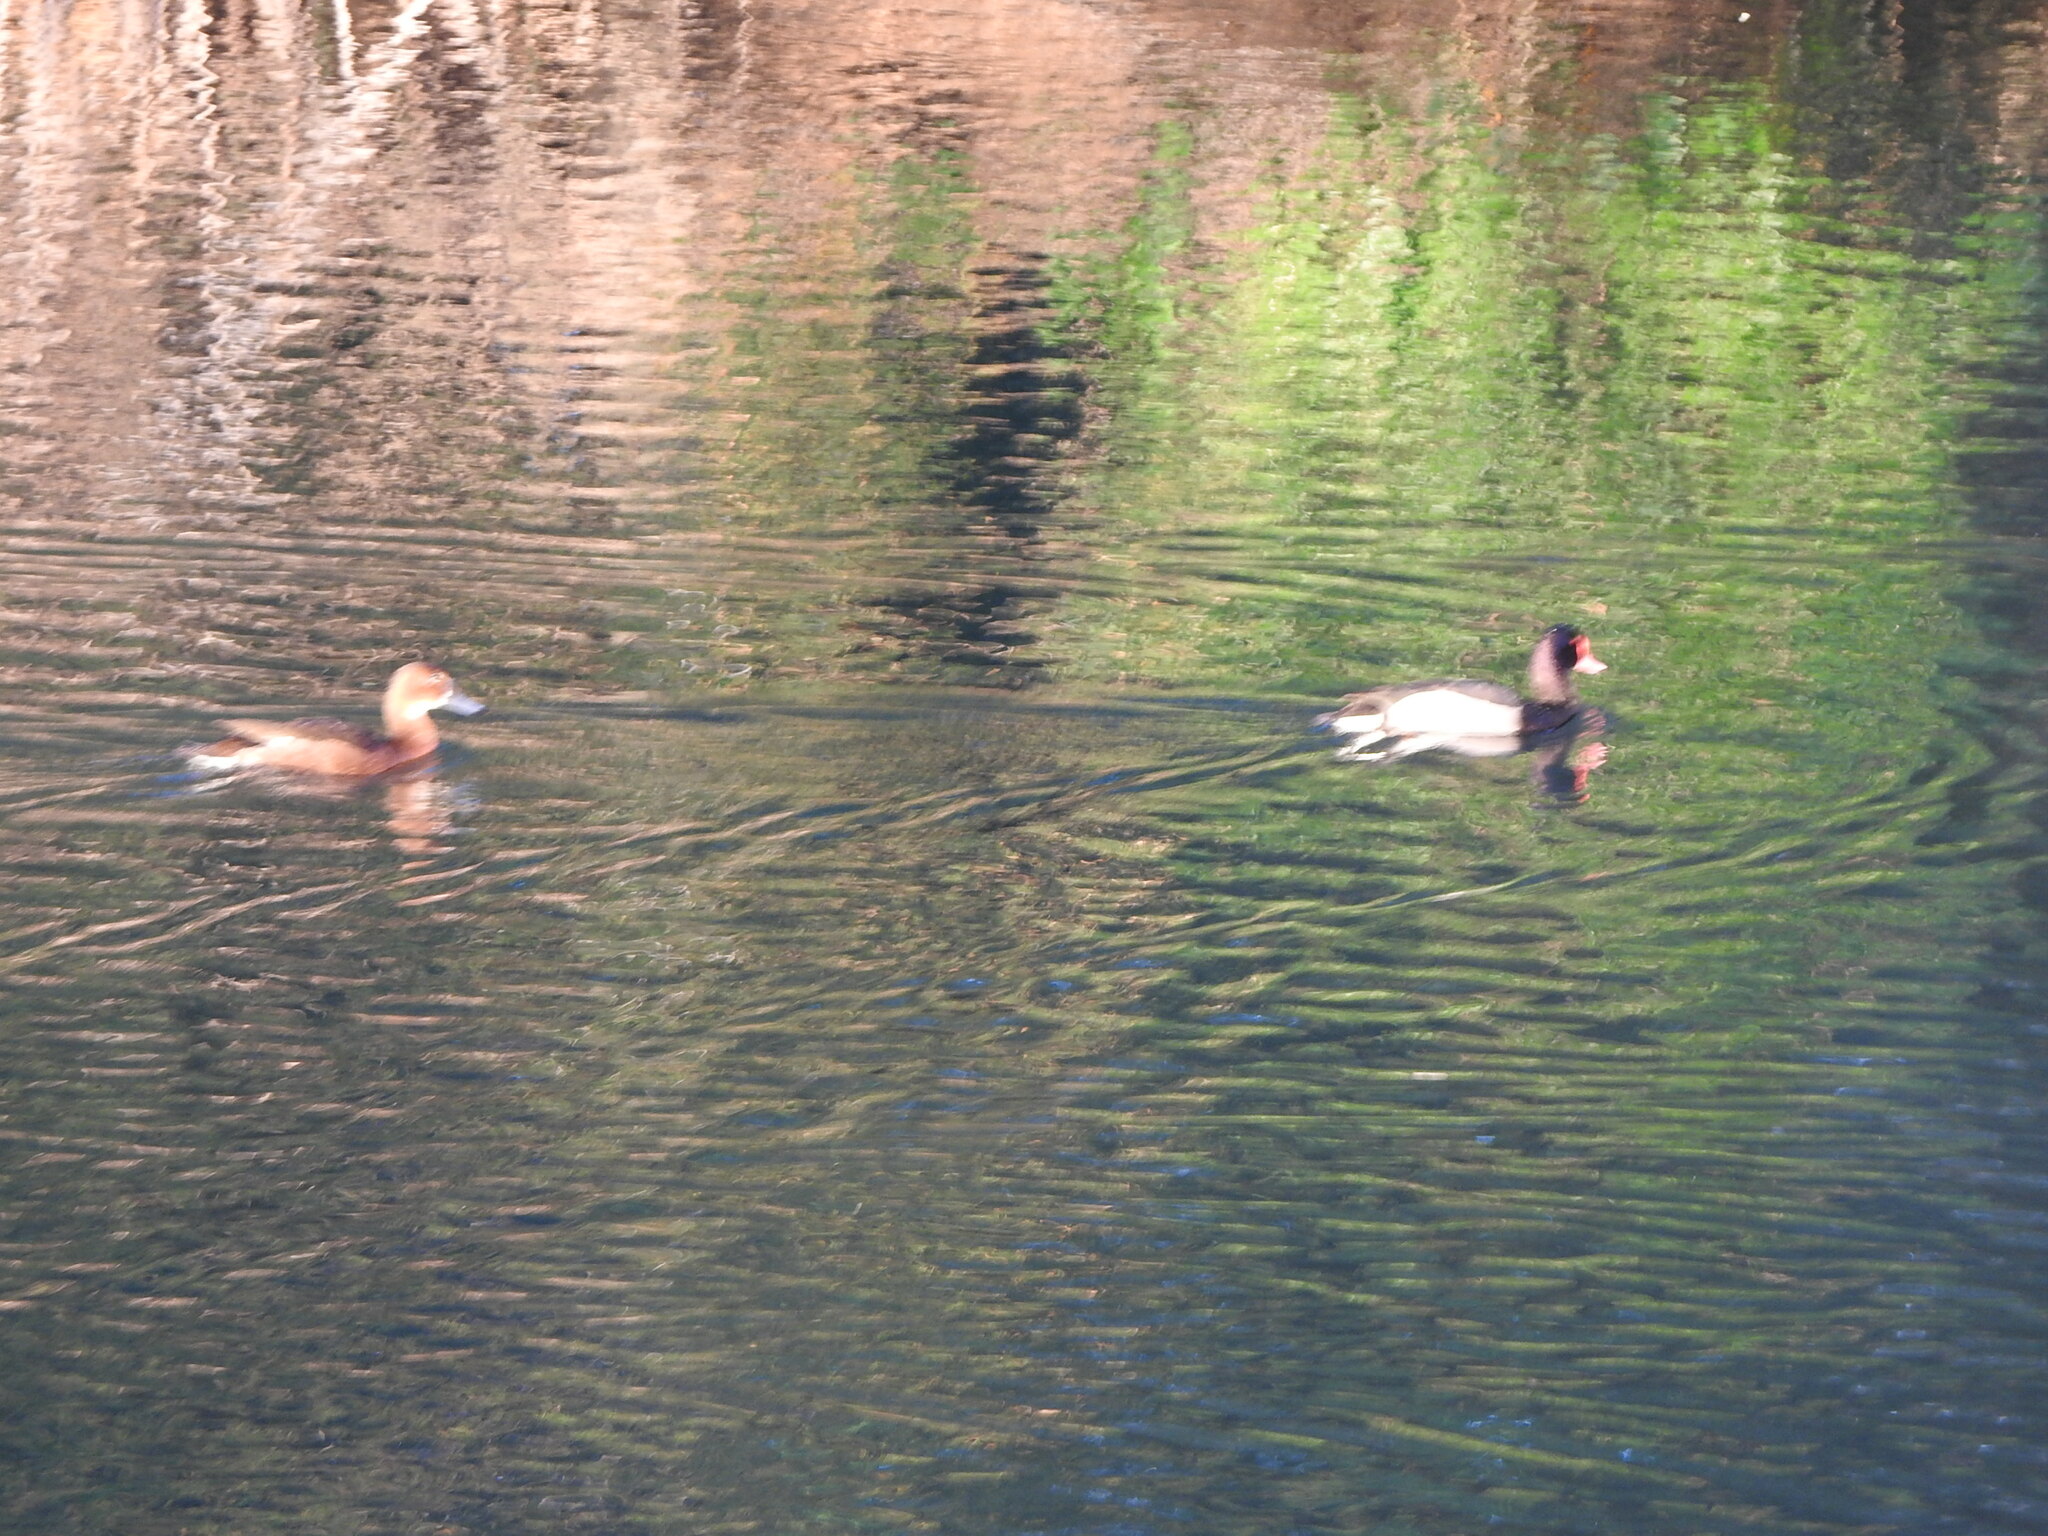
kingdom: Animalia
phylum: Chordata
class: Aves
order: Anseriformes
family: Anatidae
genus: Netta
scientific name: Netta peposaca
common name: Rosy-billed pochard
